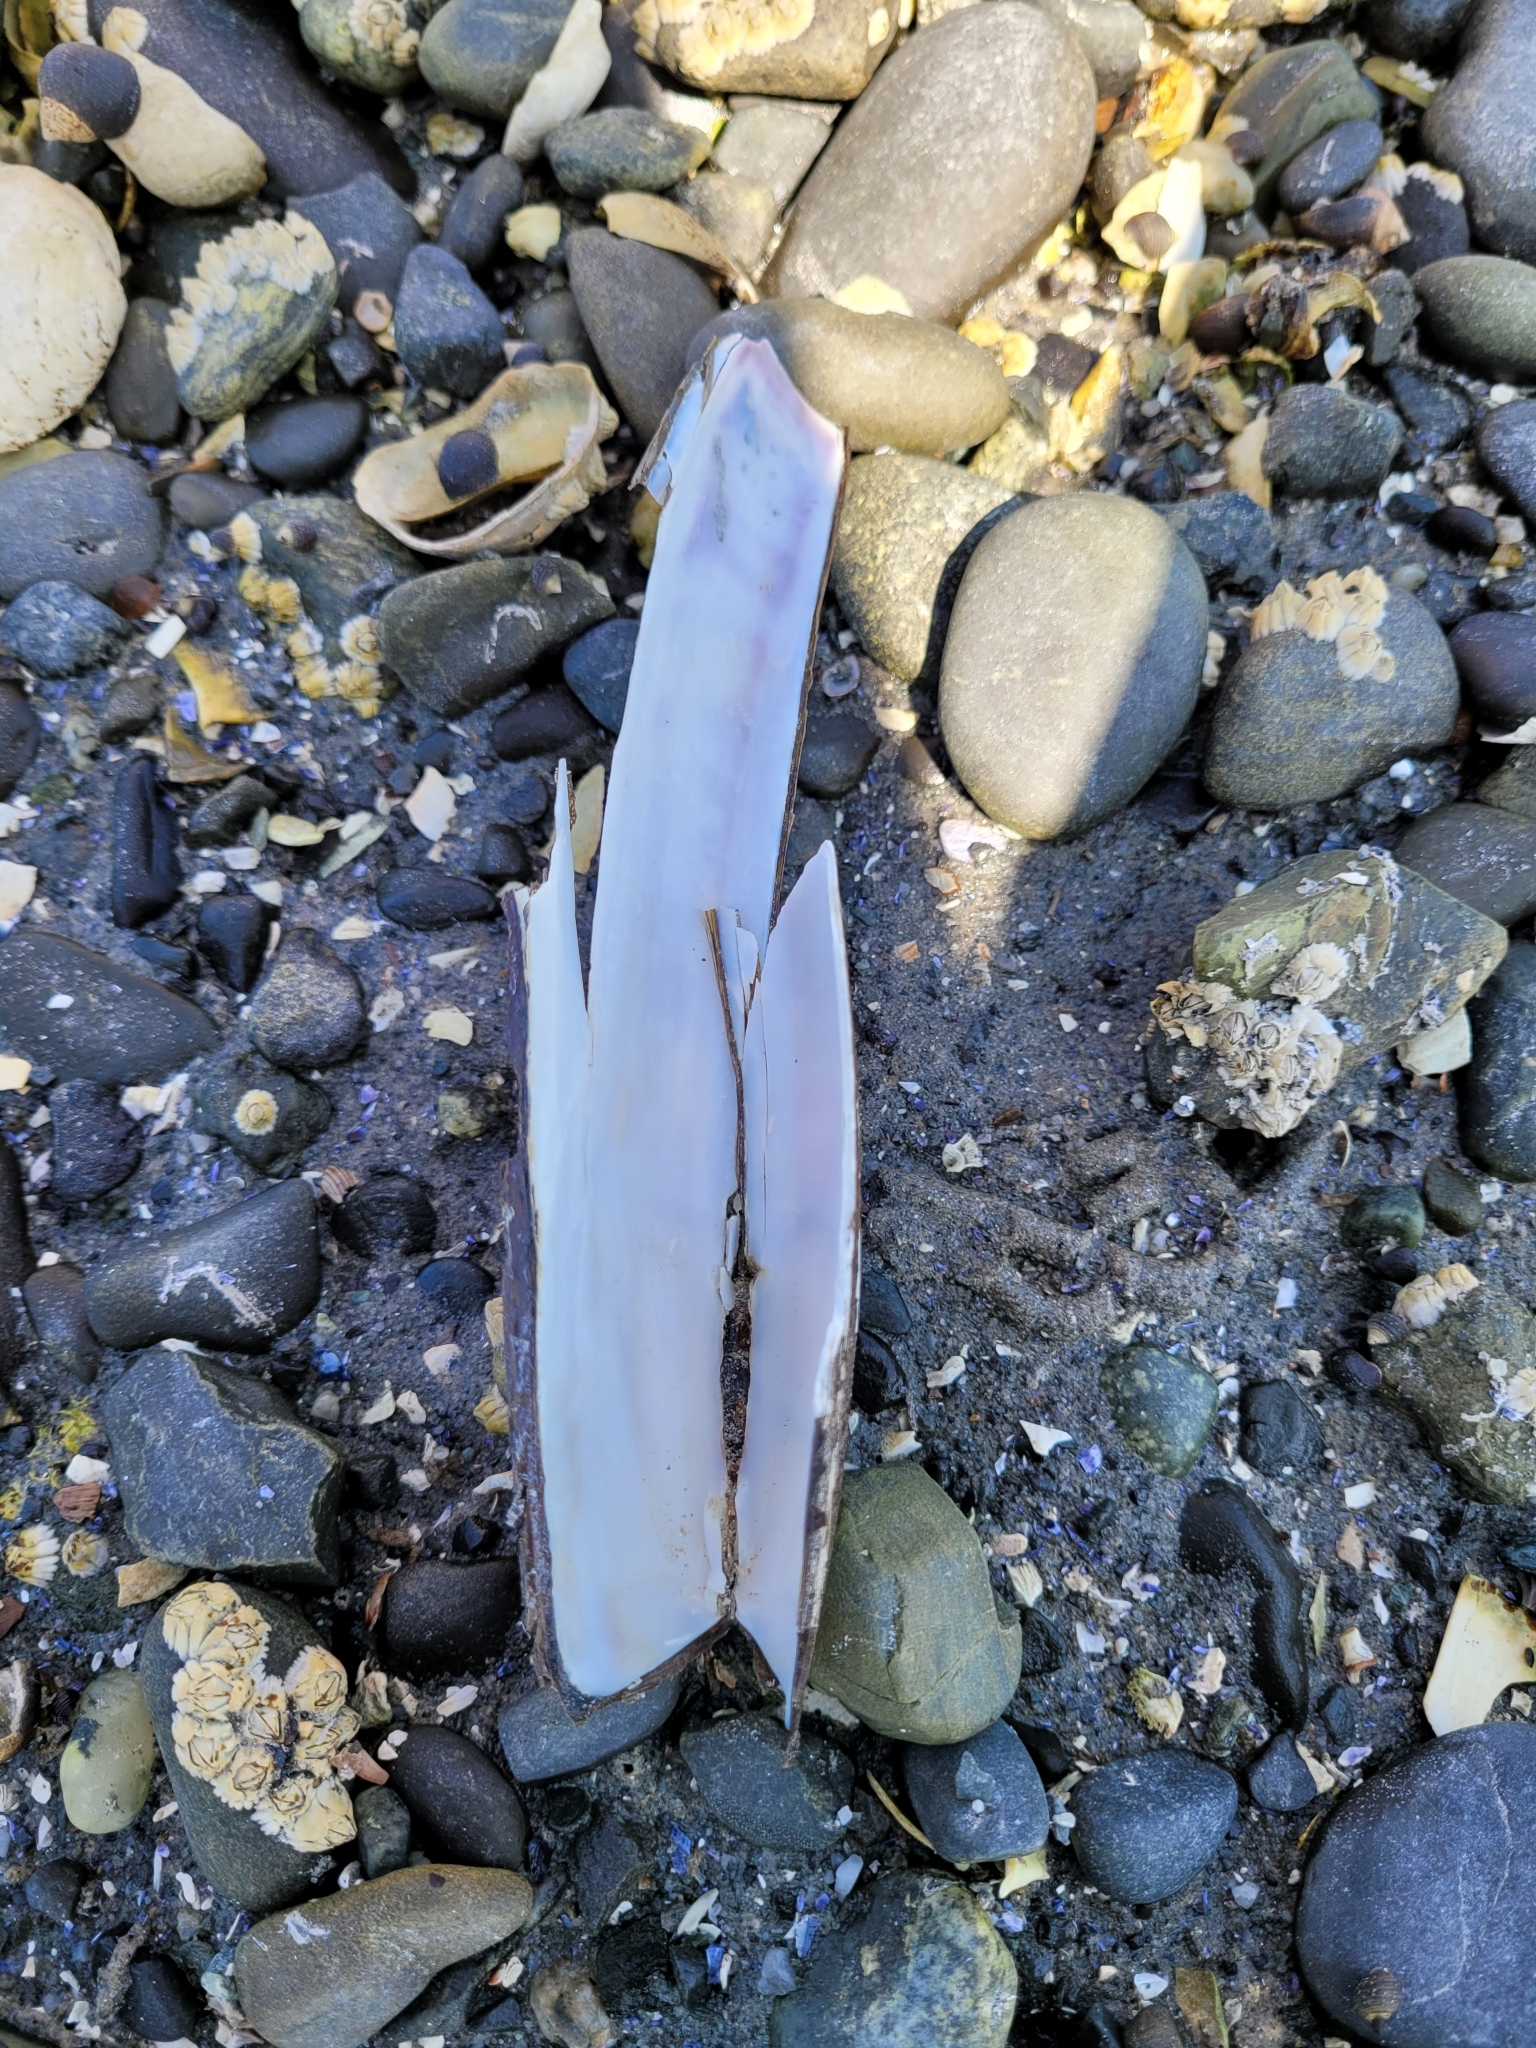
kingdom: Animalia
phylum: Mollusca
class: Bivalvia
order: Adapedonta
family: Pharidae
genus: Ensis
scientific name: Ensis leei
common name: American jack knife clam
